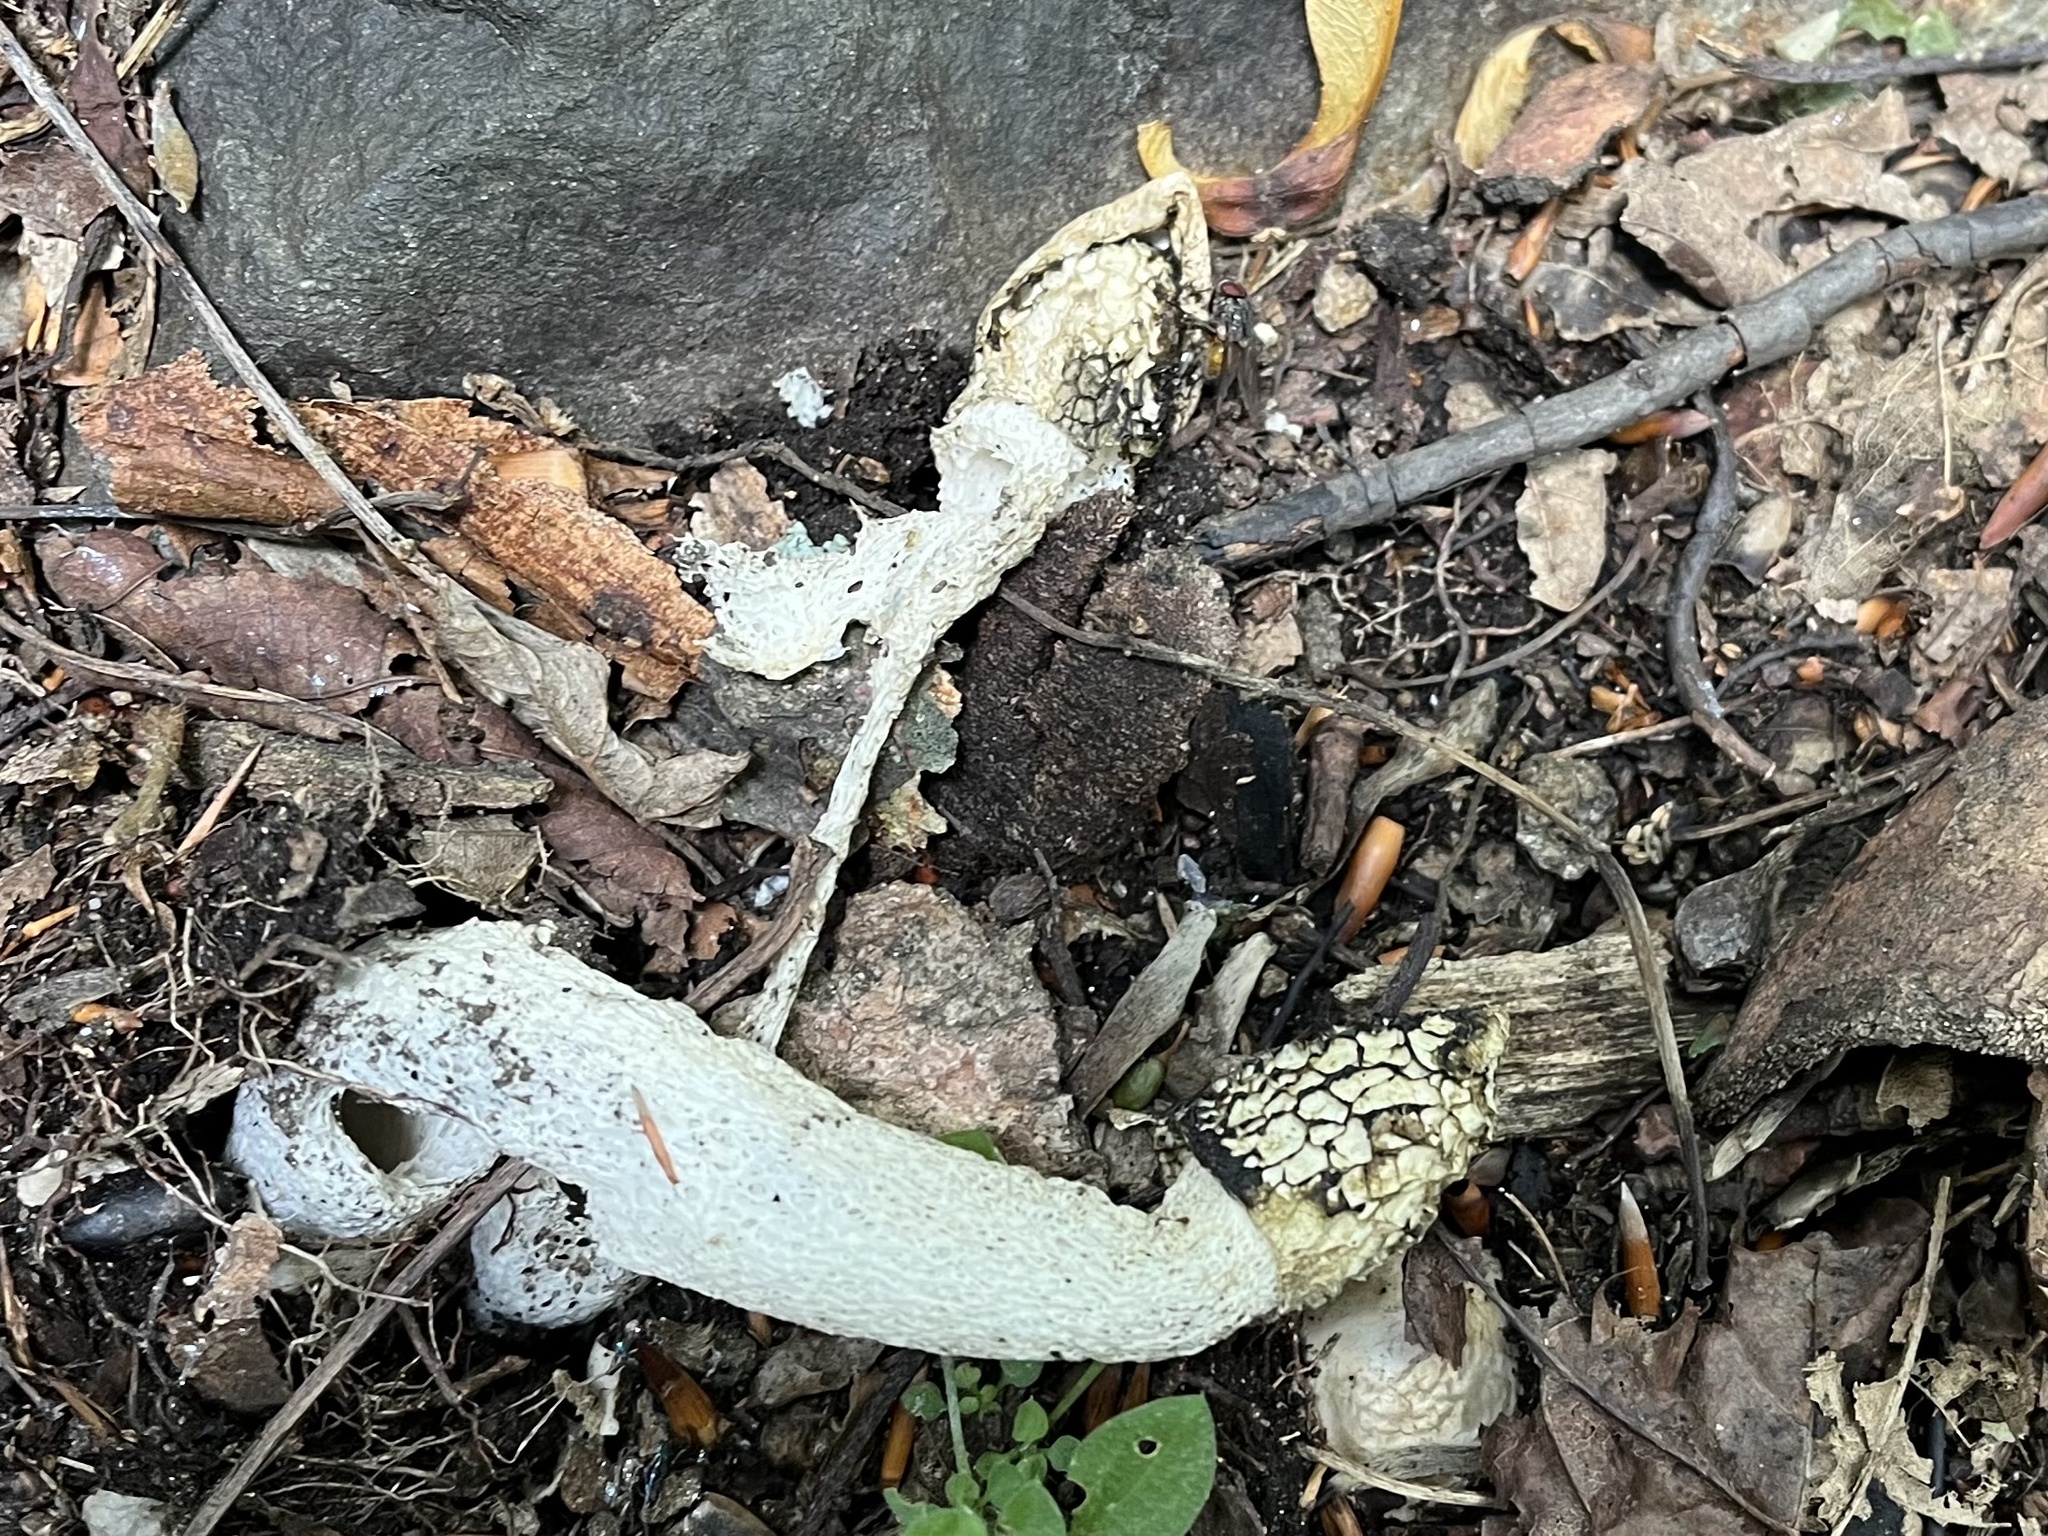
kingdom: Fungi
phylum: Basidiomycota
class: Agaricomycetes
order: Phallales
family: Phallaceae
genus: Phallus
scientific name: Phallus impudicus
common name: Common stinkhorn
